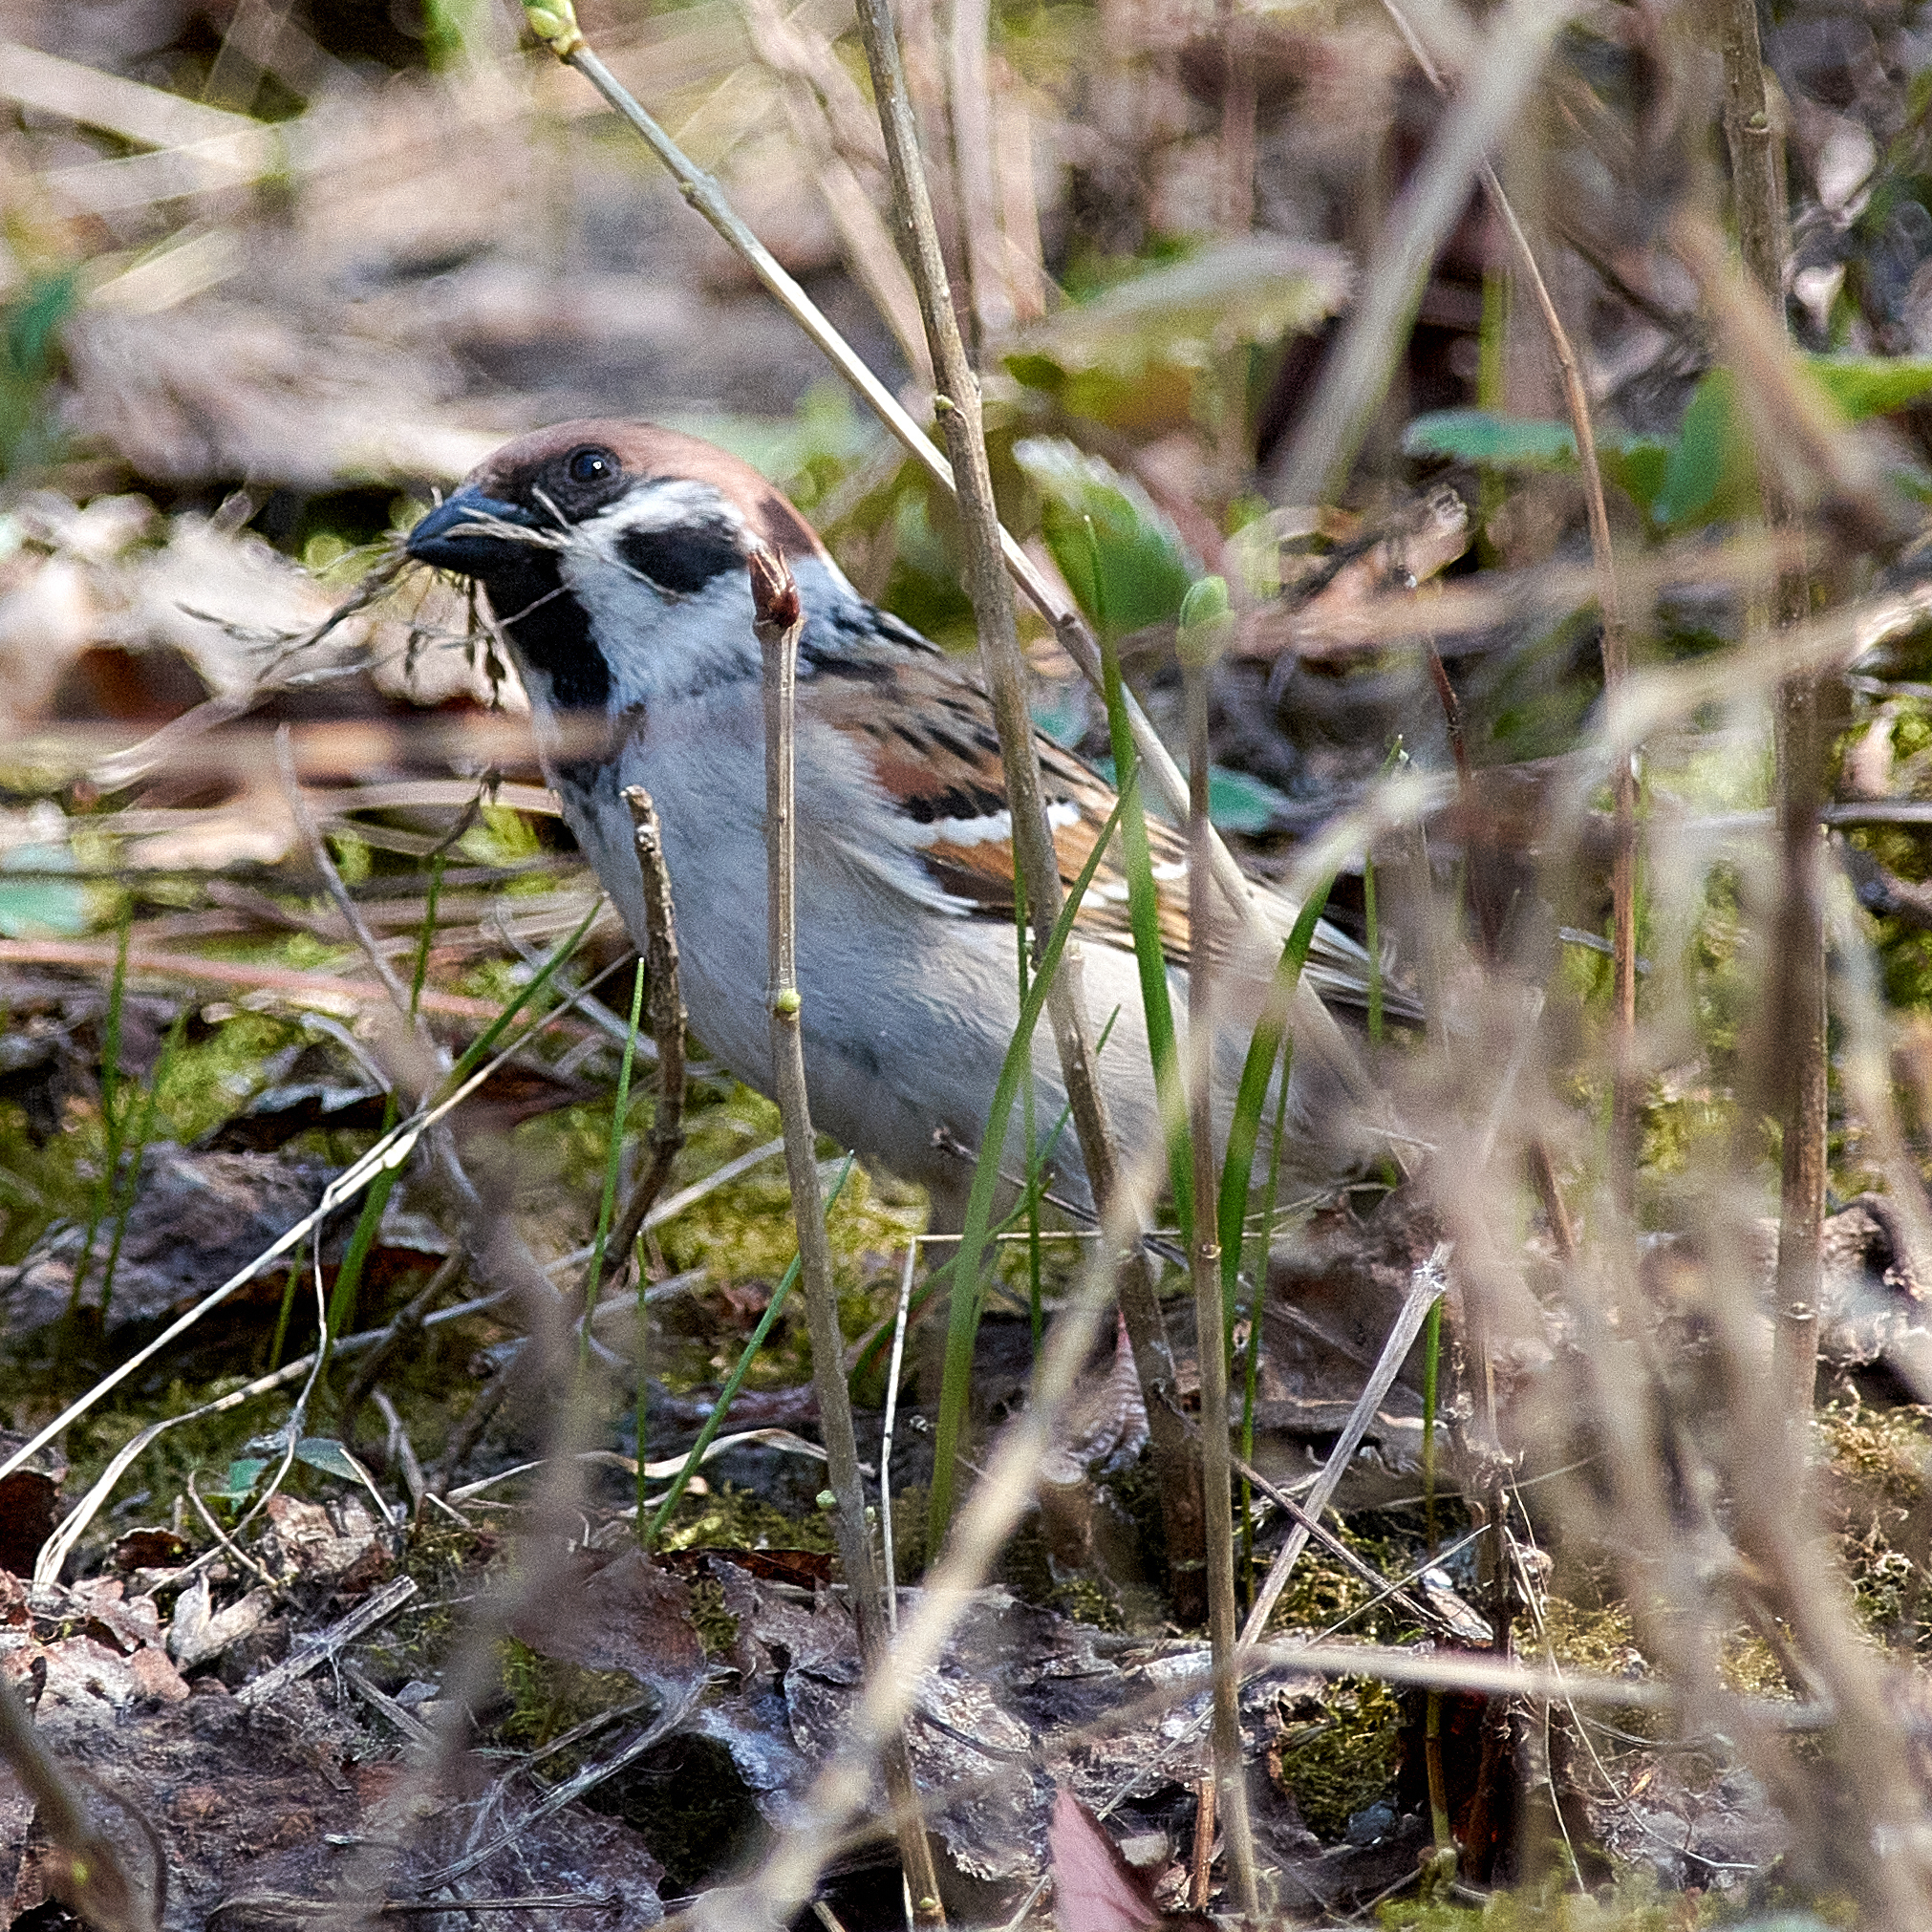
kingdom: Animalia
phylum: Chordata
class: Aves
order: Passeriformes
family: Passeridae
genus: Passer
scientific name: Passer montanus
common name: Eurasian tree sparrow
